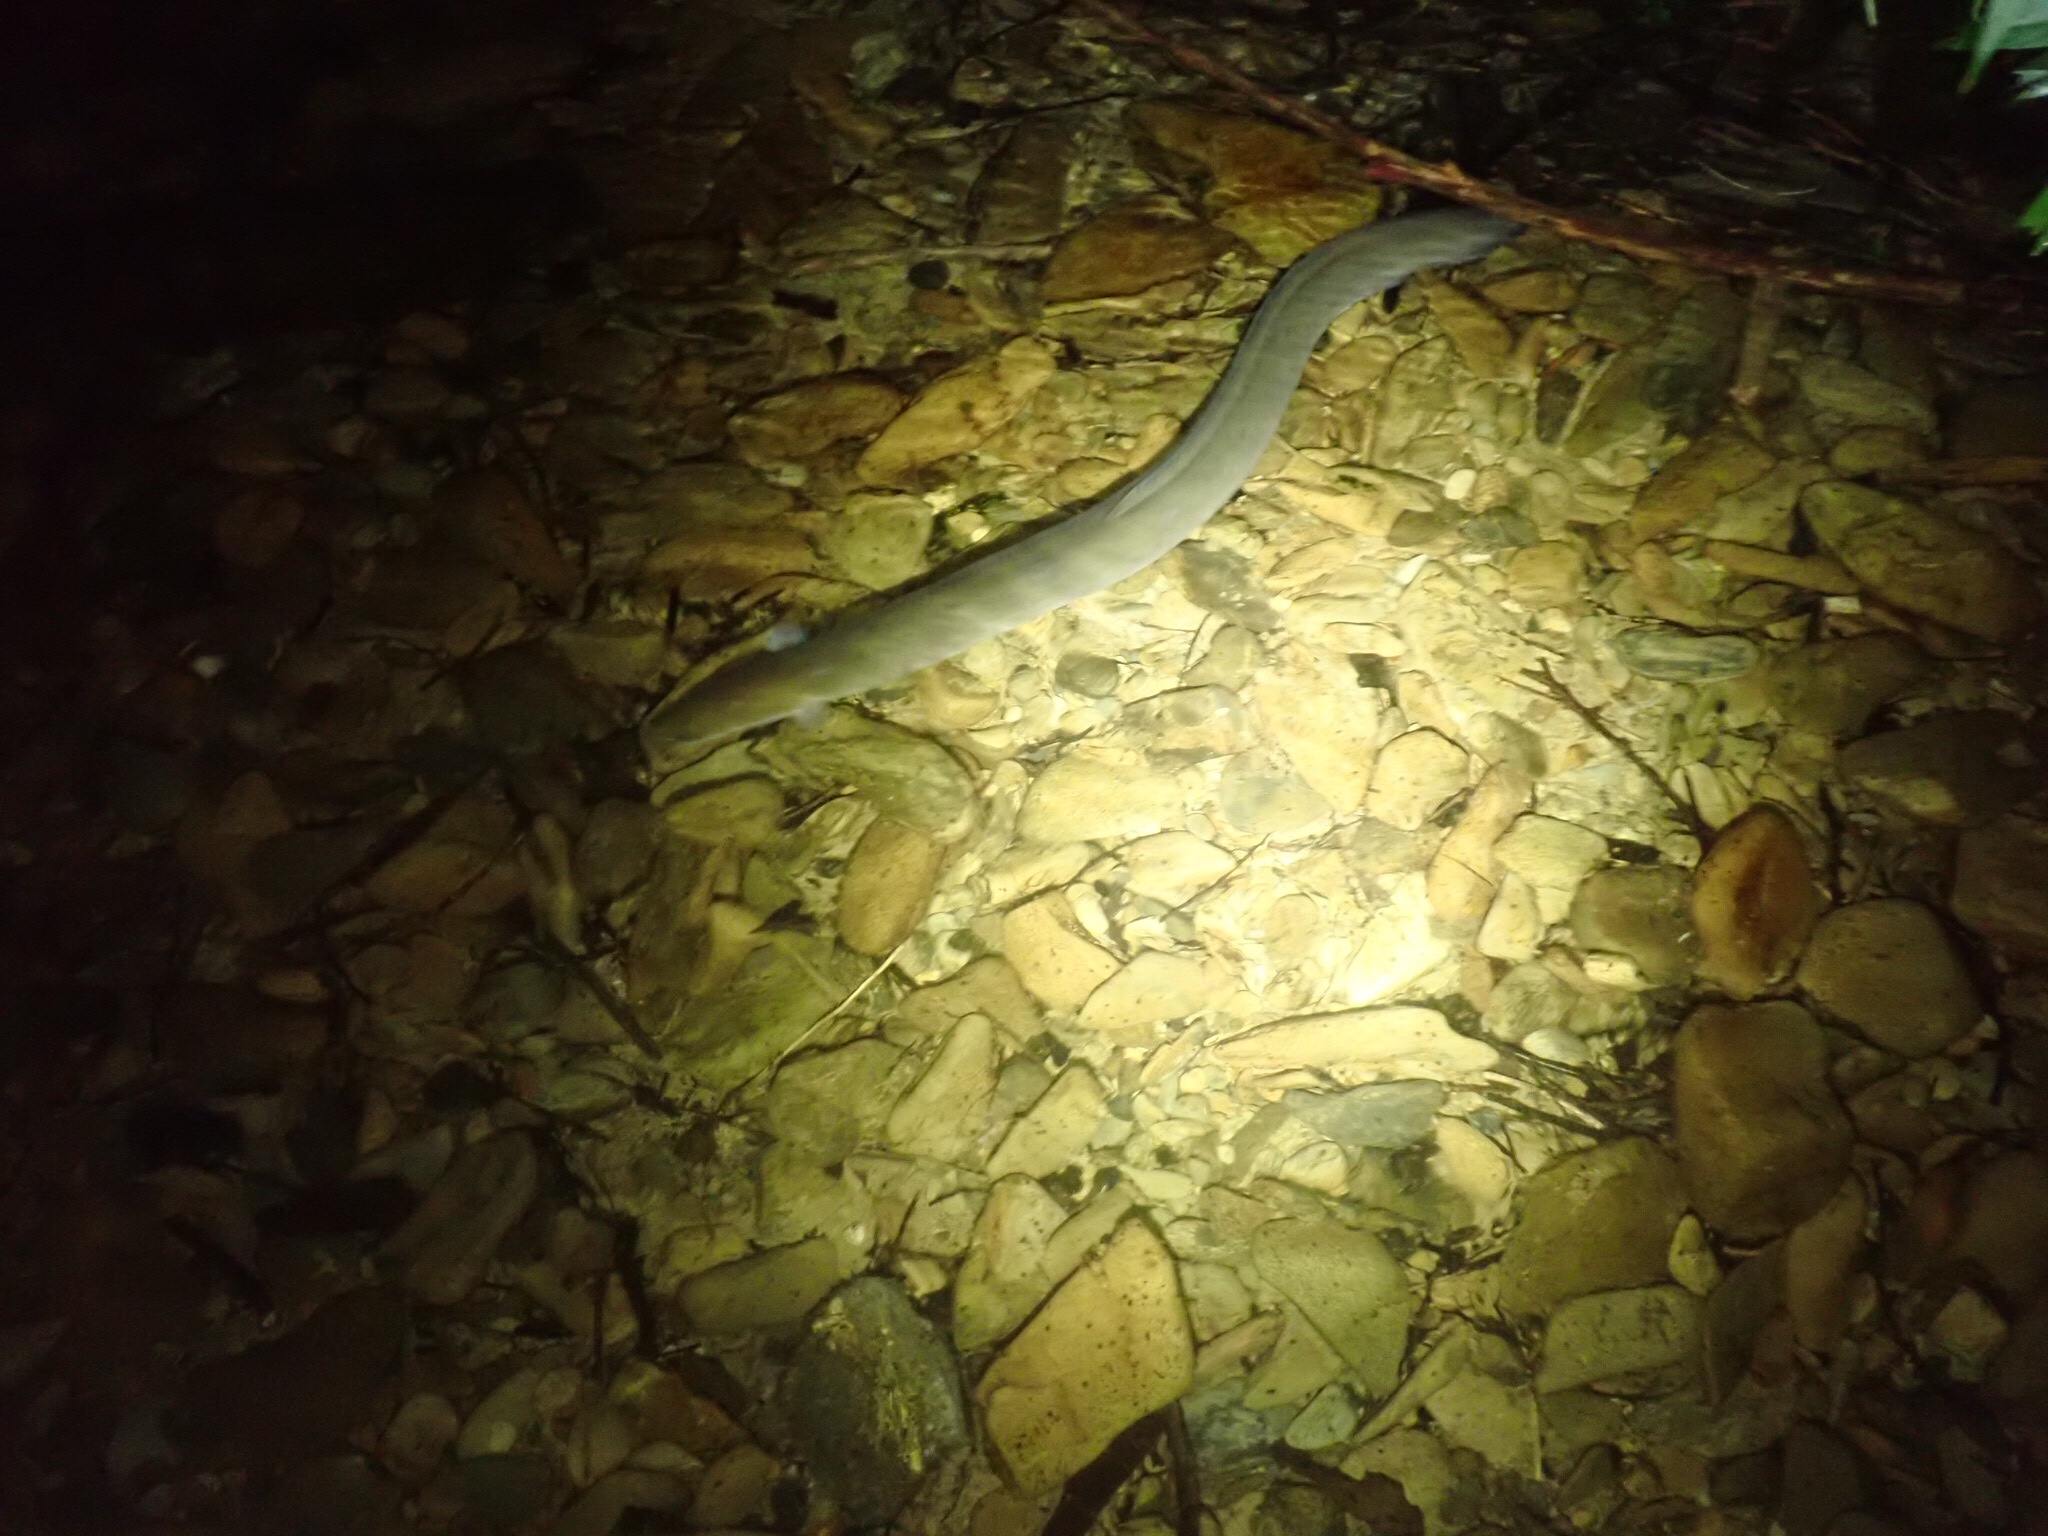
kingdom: Animalia
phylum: Chordata
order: Anguilliformes
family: Anguillidae
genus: Anguilla
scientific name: Anguilla australis
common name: Shortfin eel
